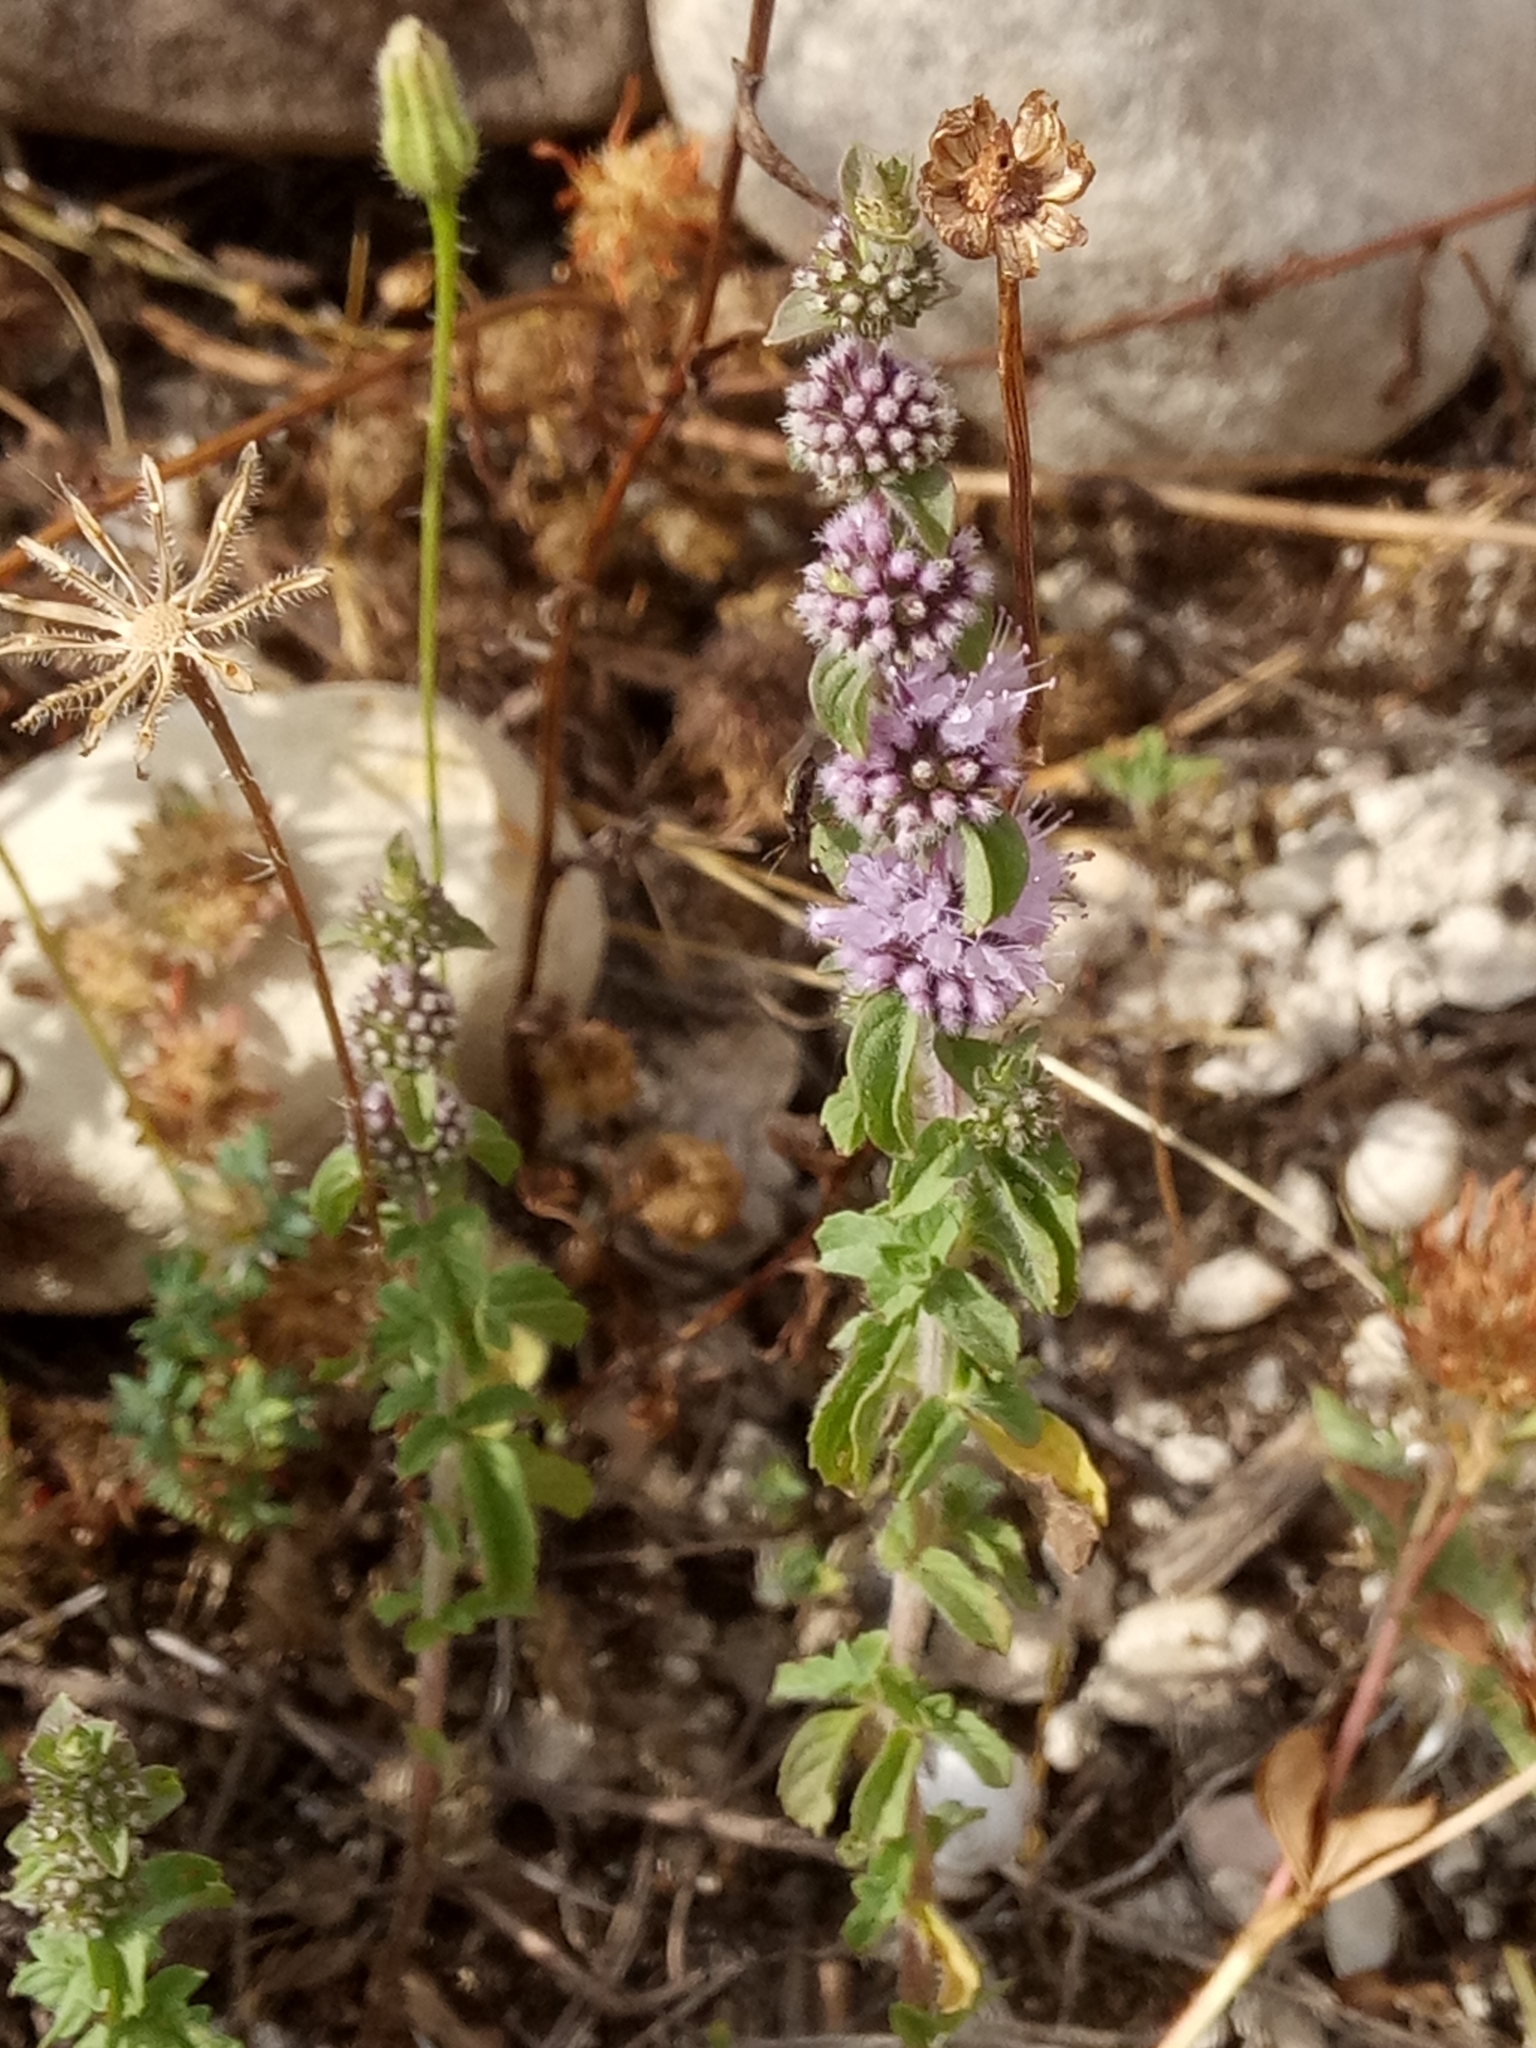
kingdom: Plantae
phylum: Tracheophyta
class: Magnoliopsida
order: Lamiales
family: Lamiaceae
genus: Mentha
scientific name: Mentha pulegium
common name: Pennyroyal
